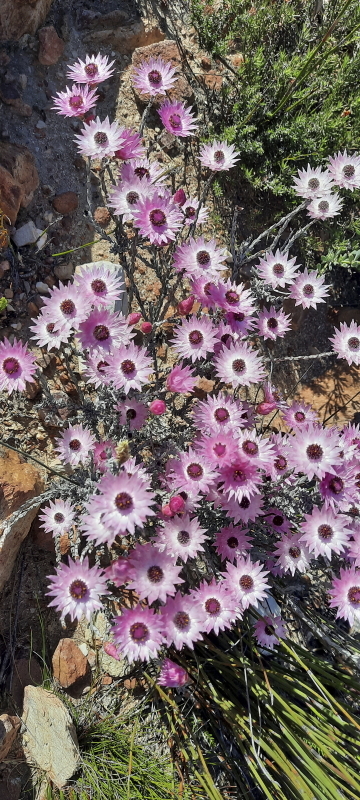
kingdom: Plantae
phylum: Tracheophyta
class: Magnoliopsida
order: Asterales
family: Asteraceae
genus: Syncarpha
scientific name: Syncarpha canescens
